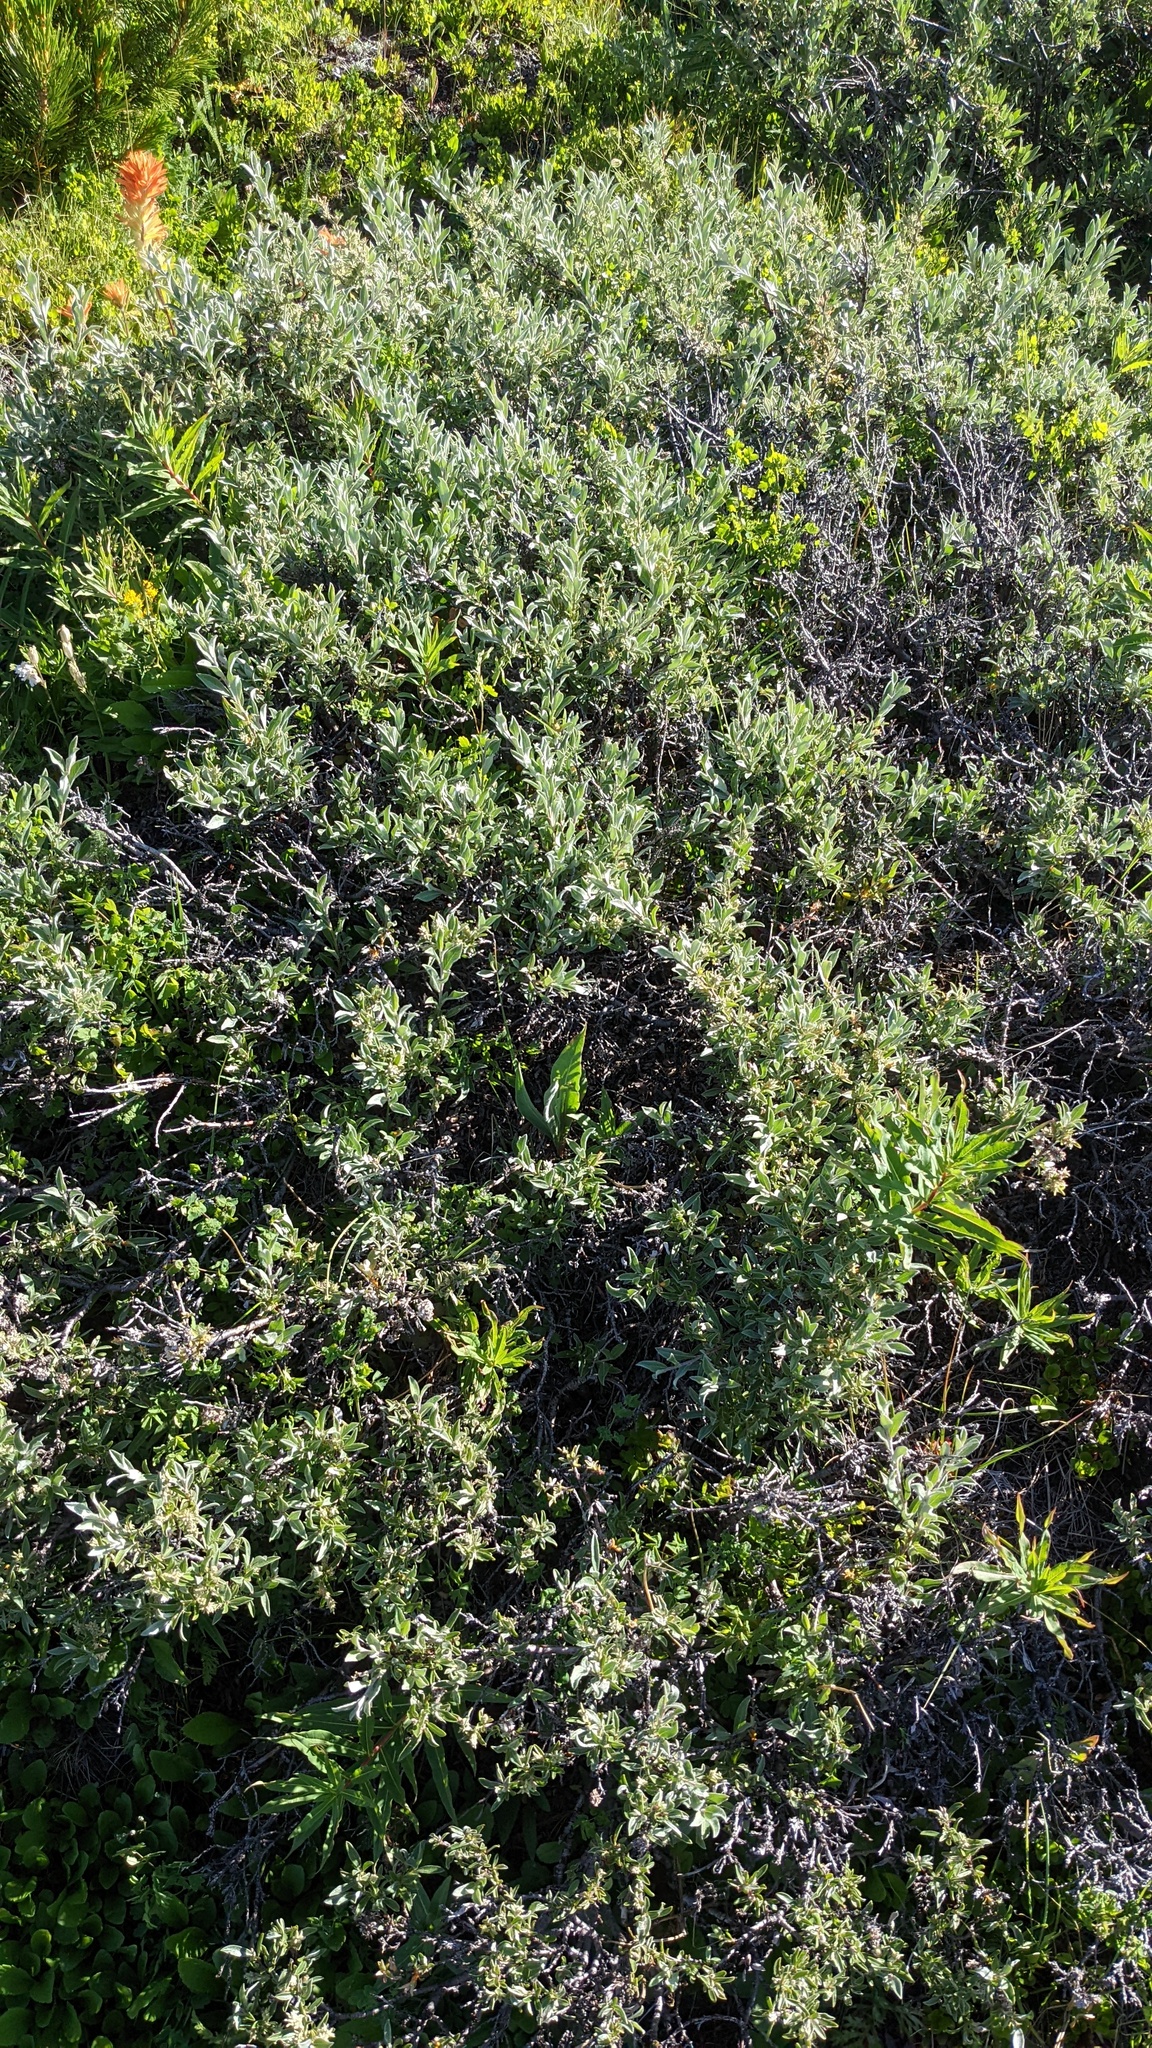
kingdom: Plantae
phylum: Tracheophyta
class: Magnoliopsida
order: Malpighiales
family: Salicaceae
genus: Salix
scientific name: Salix candida
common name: Hoary willow
